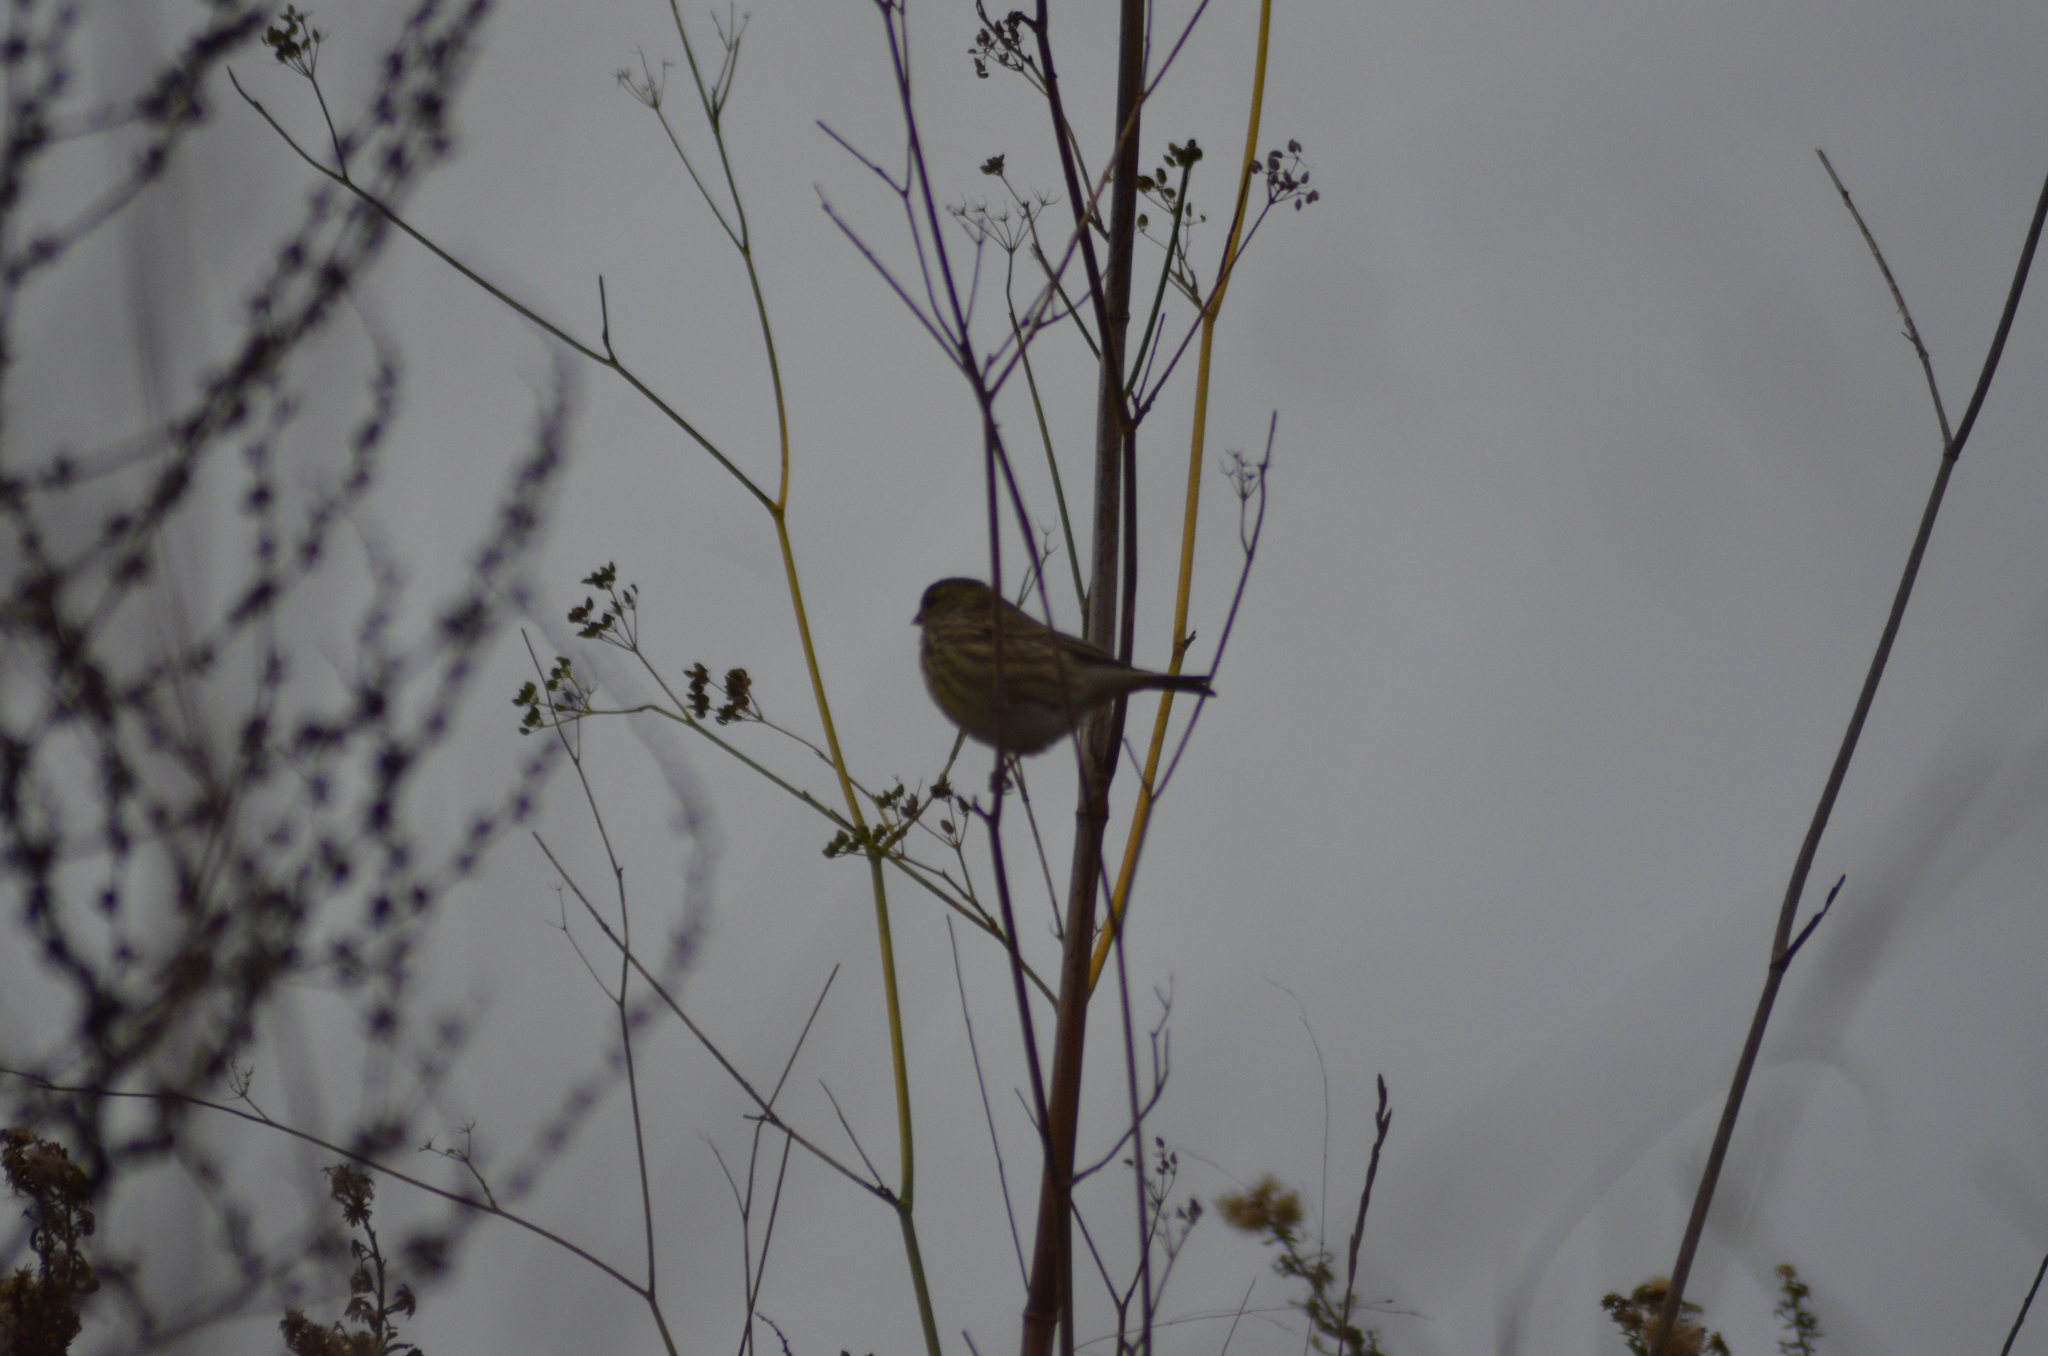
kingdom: Animalia
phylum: Chordata
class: Aves
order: Passeriformes
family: Fringillidae
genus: Serinus
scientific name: Serinus serinus
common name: European serin
